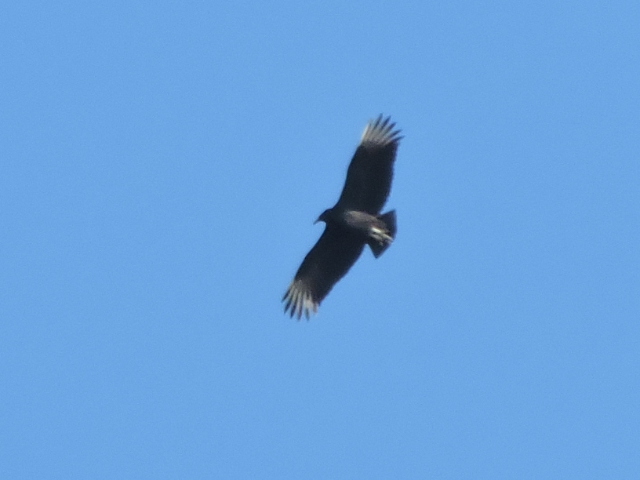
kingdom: Animalia
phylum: Chordata
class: Aves
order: Accipitriformes
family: Cathartidae
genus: Coragyps
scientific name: Coragyps atratus
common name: Black vulture
